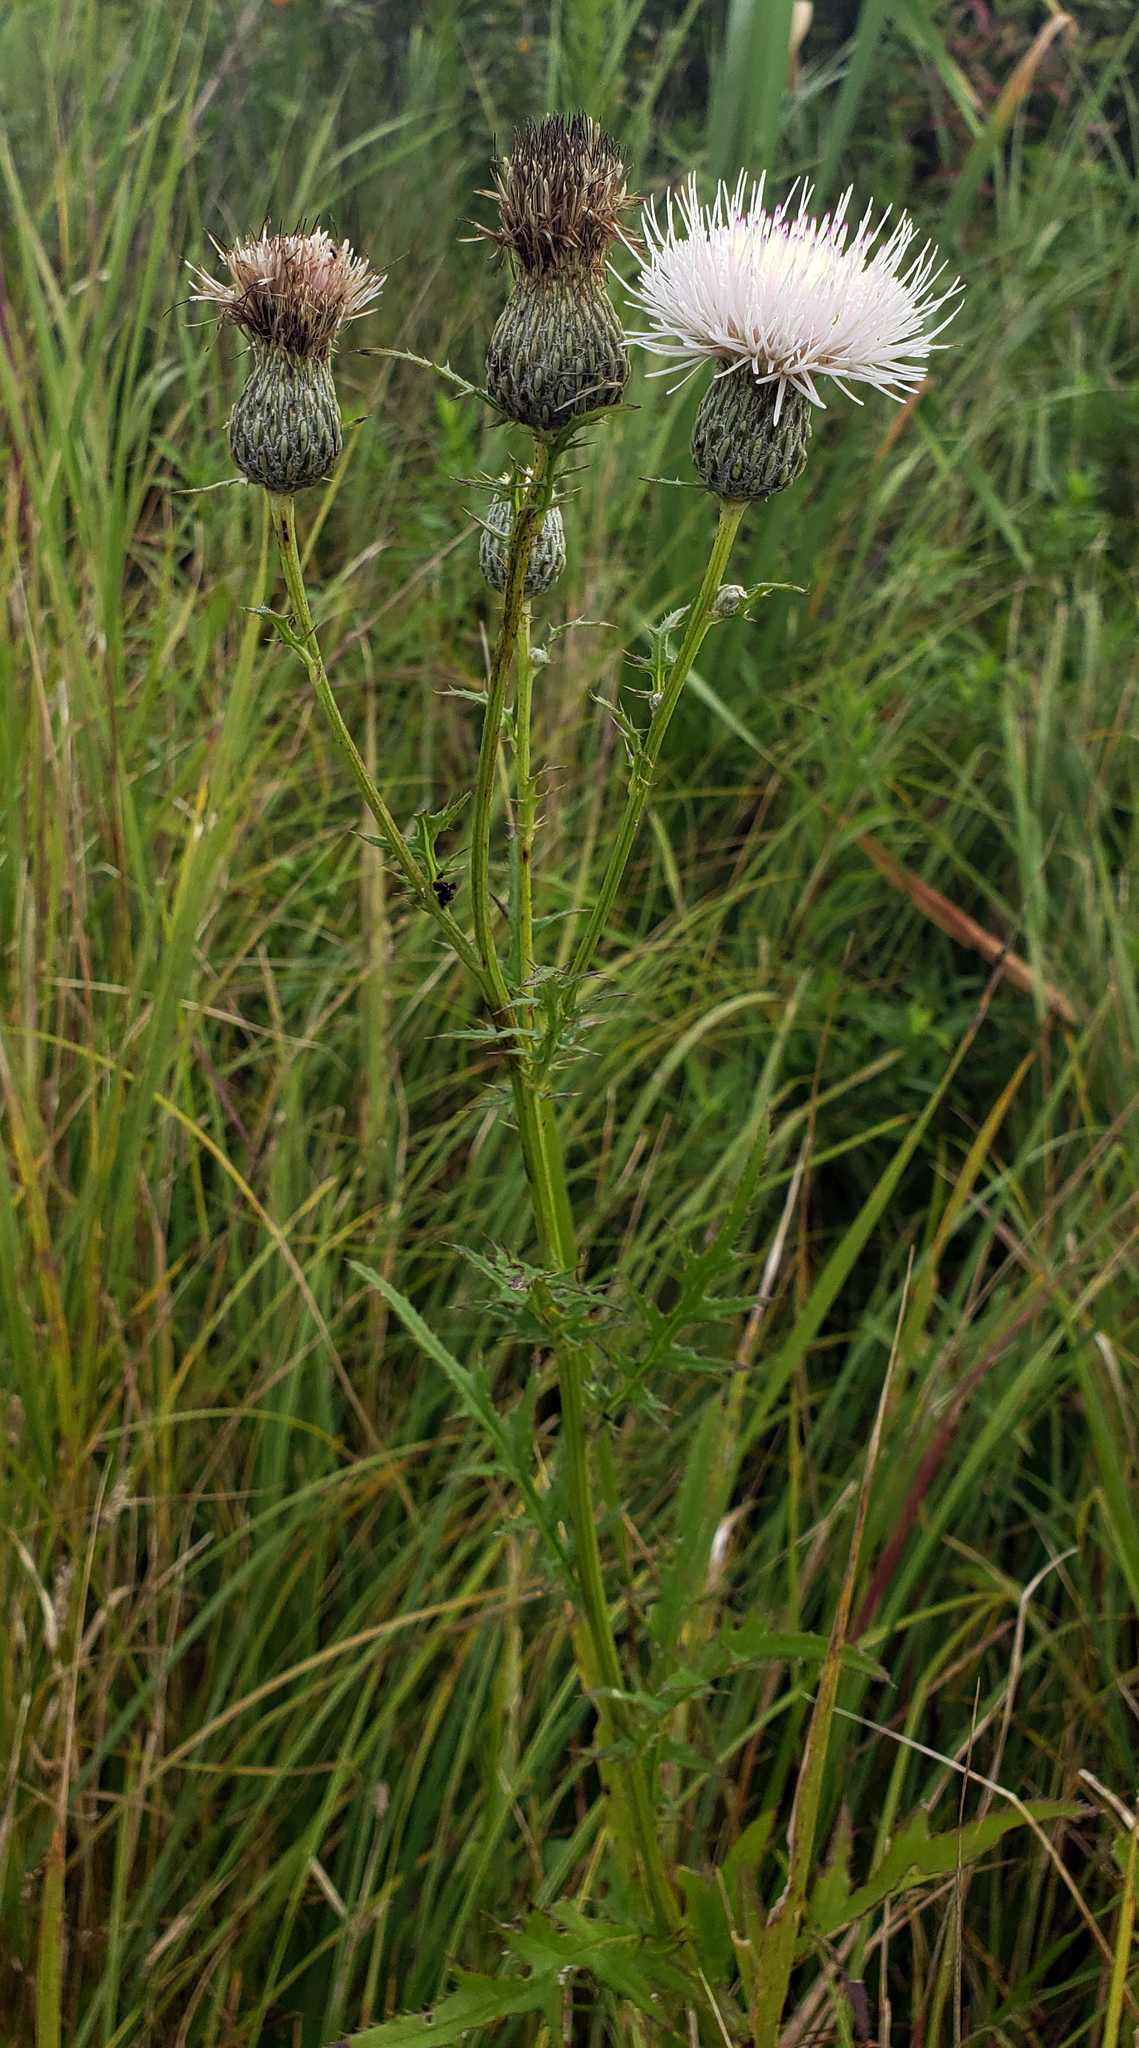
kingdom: Plantae
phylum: Tracheophyta
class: Magnoliopsida
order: Asterales
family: Asteraceae
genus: Cirsium
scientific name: Cirsium muticum
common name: Dunce-nettle
